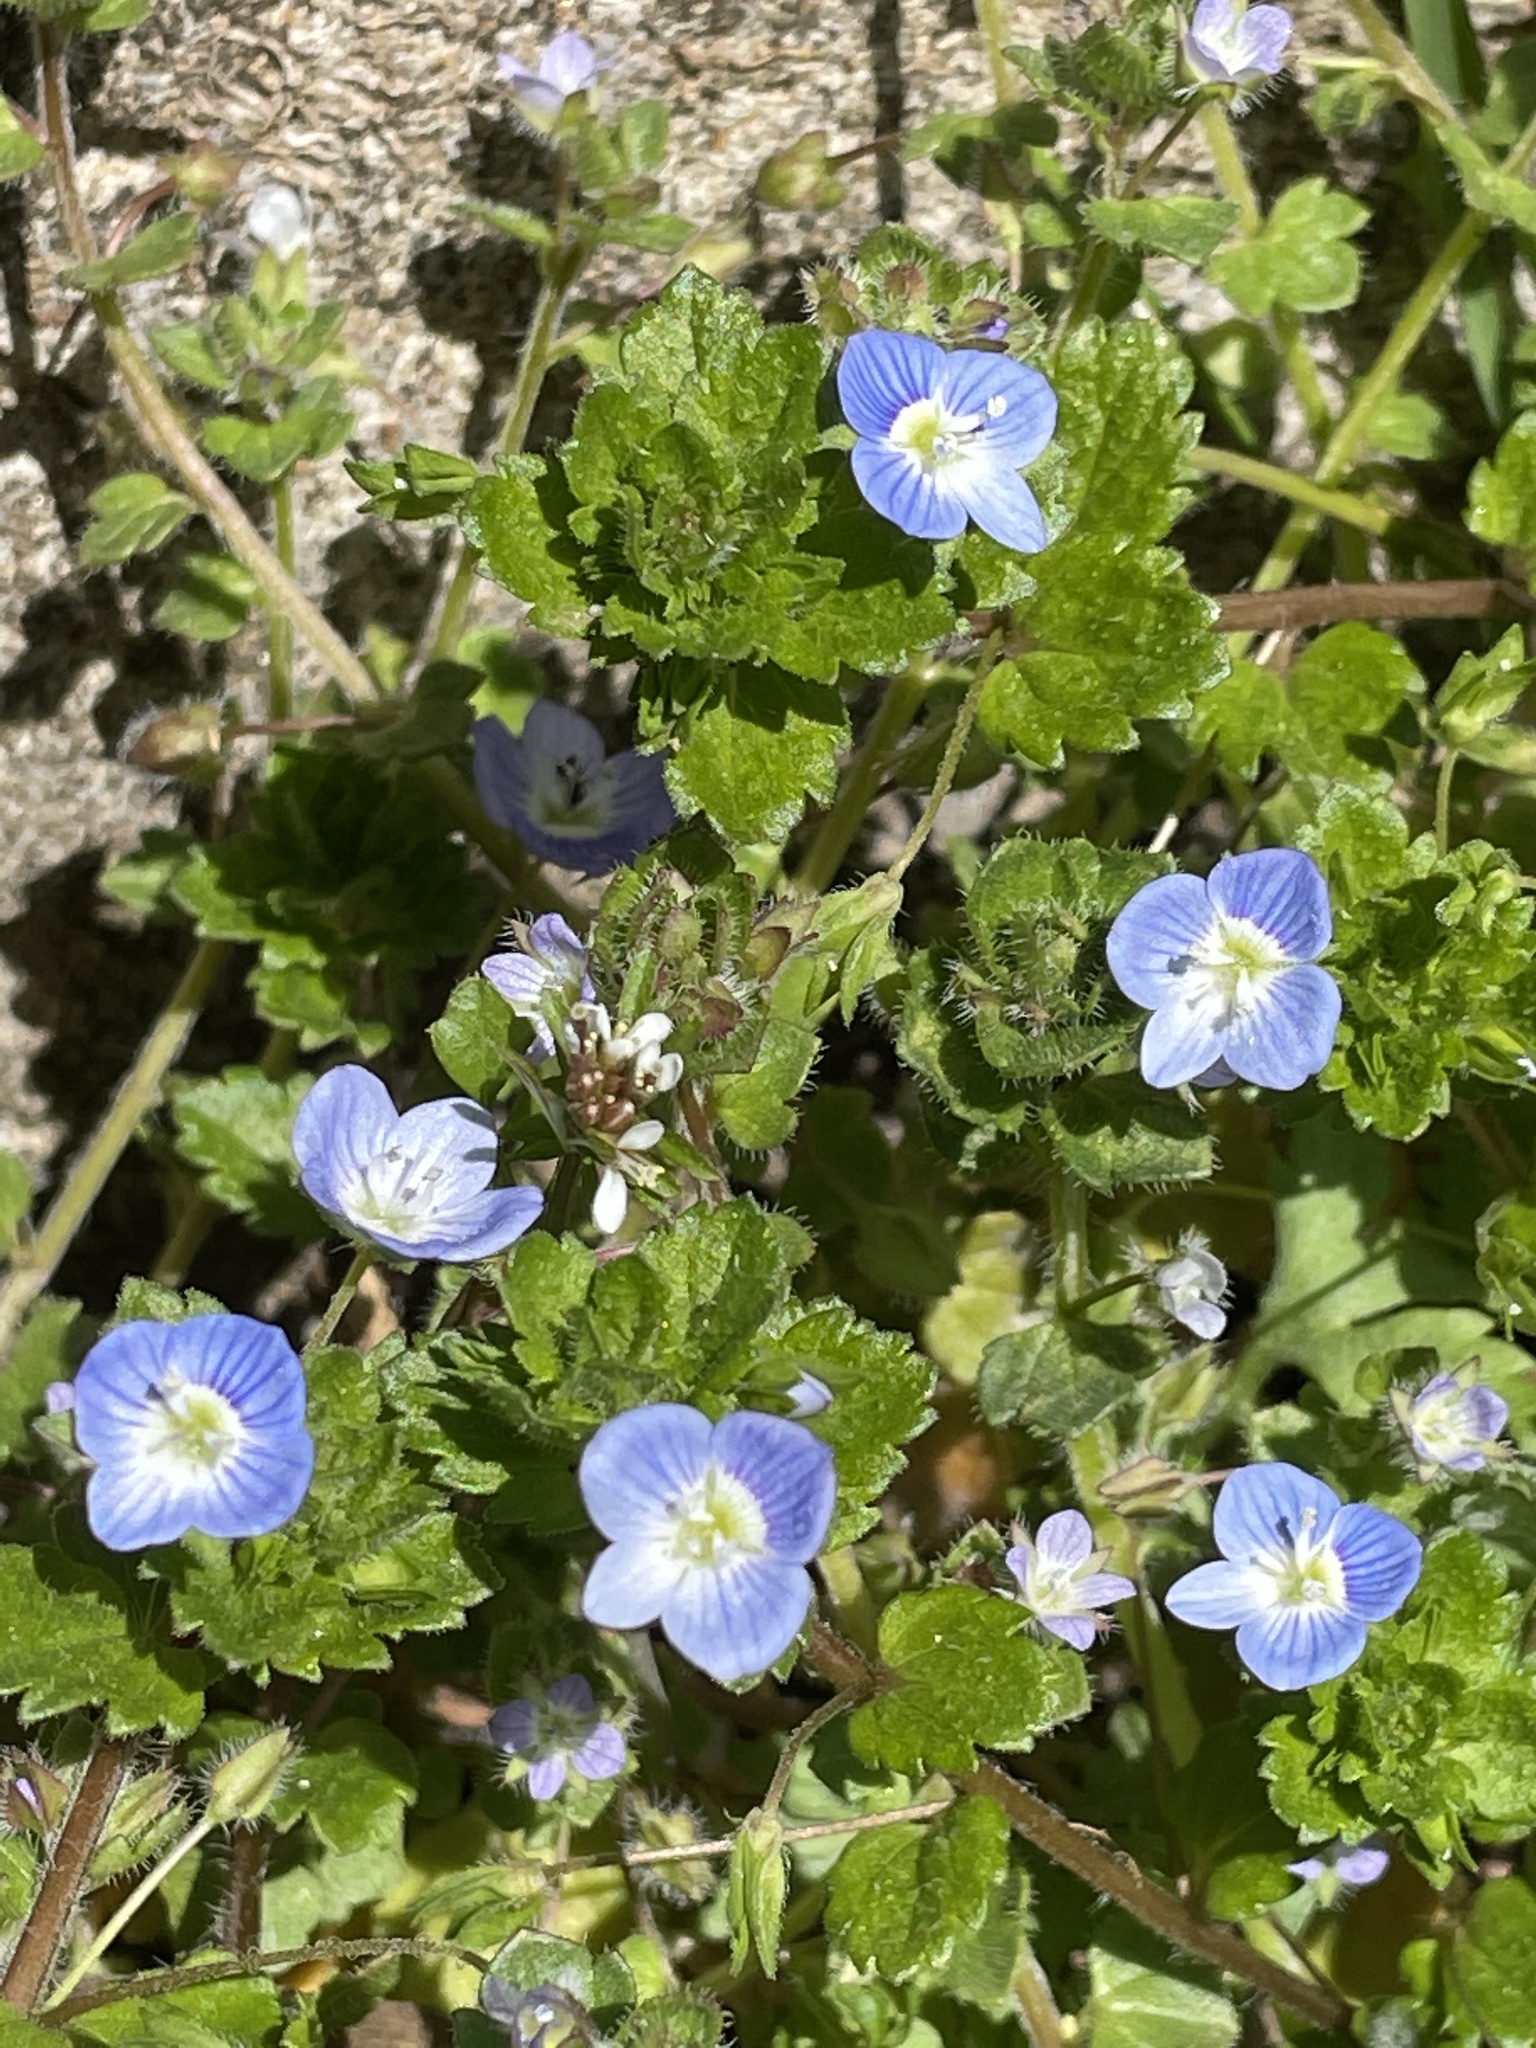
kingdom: Plantae
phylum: Tracheophyta
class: Magnoliopsida
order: Lamiales
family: Plantaginaceae
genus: Veronica
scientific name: Veronica persica
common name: Common field-speedwell
